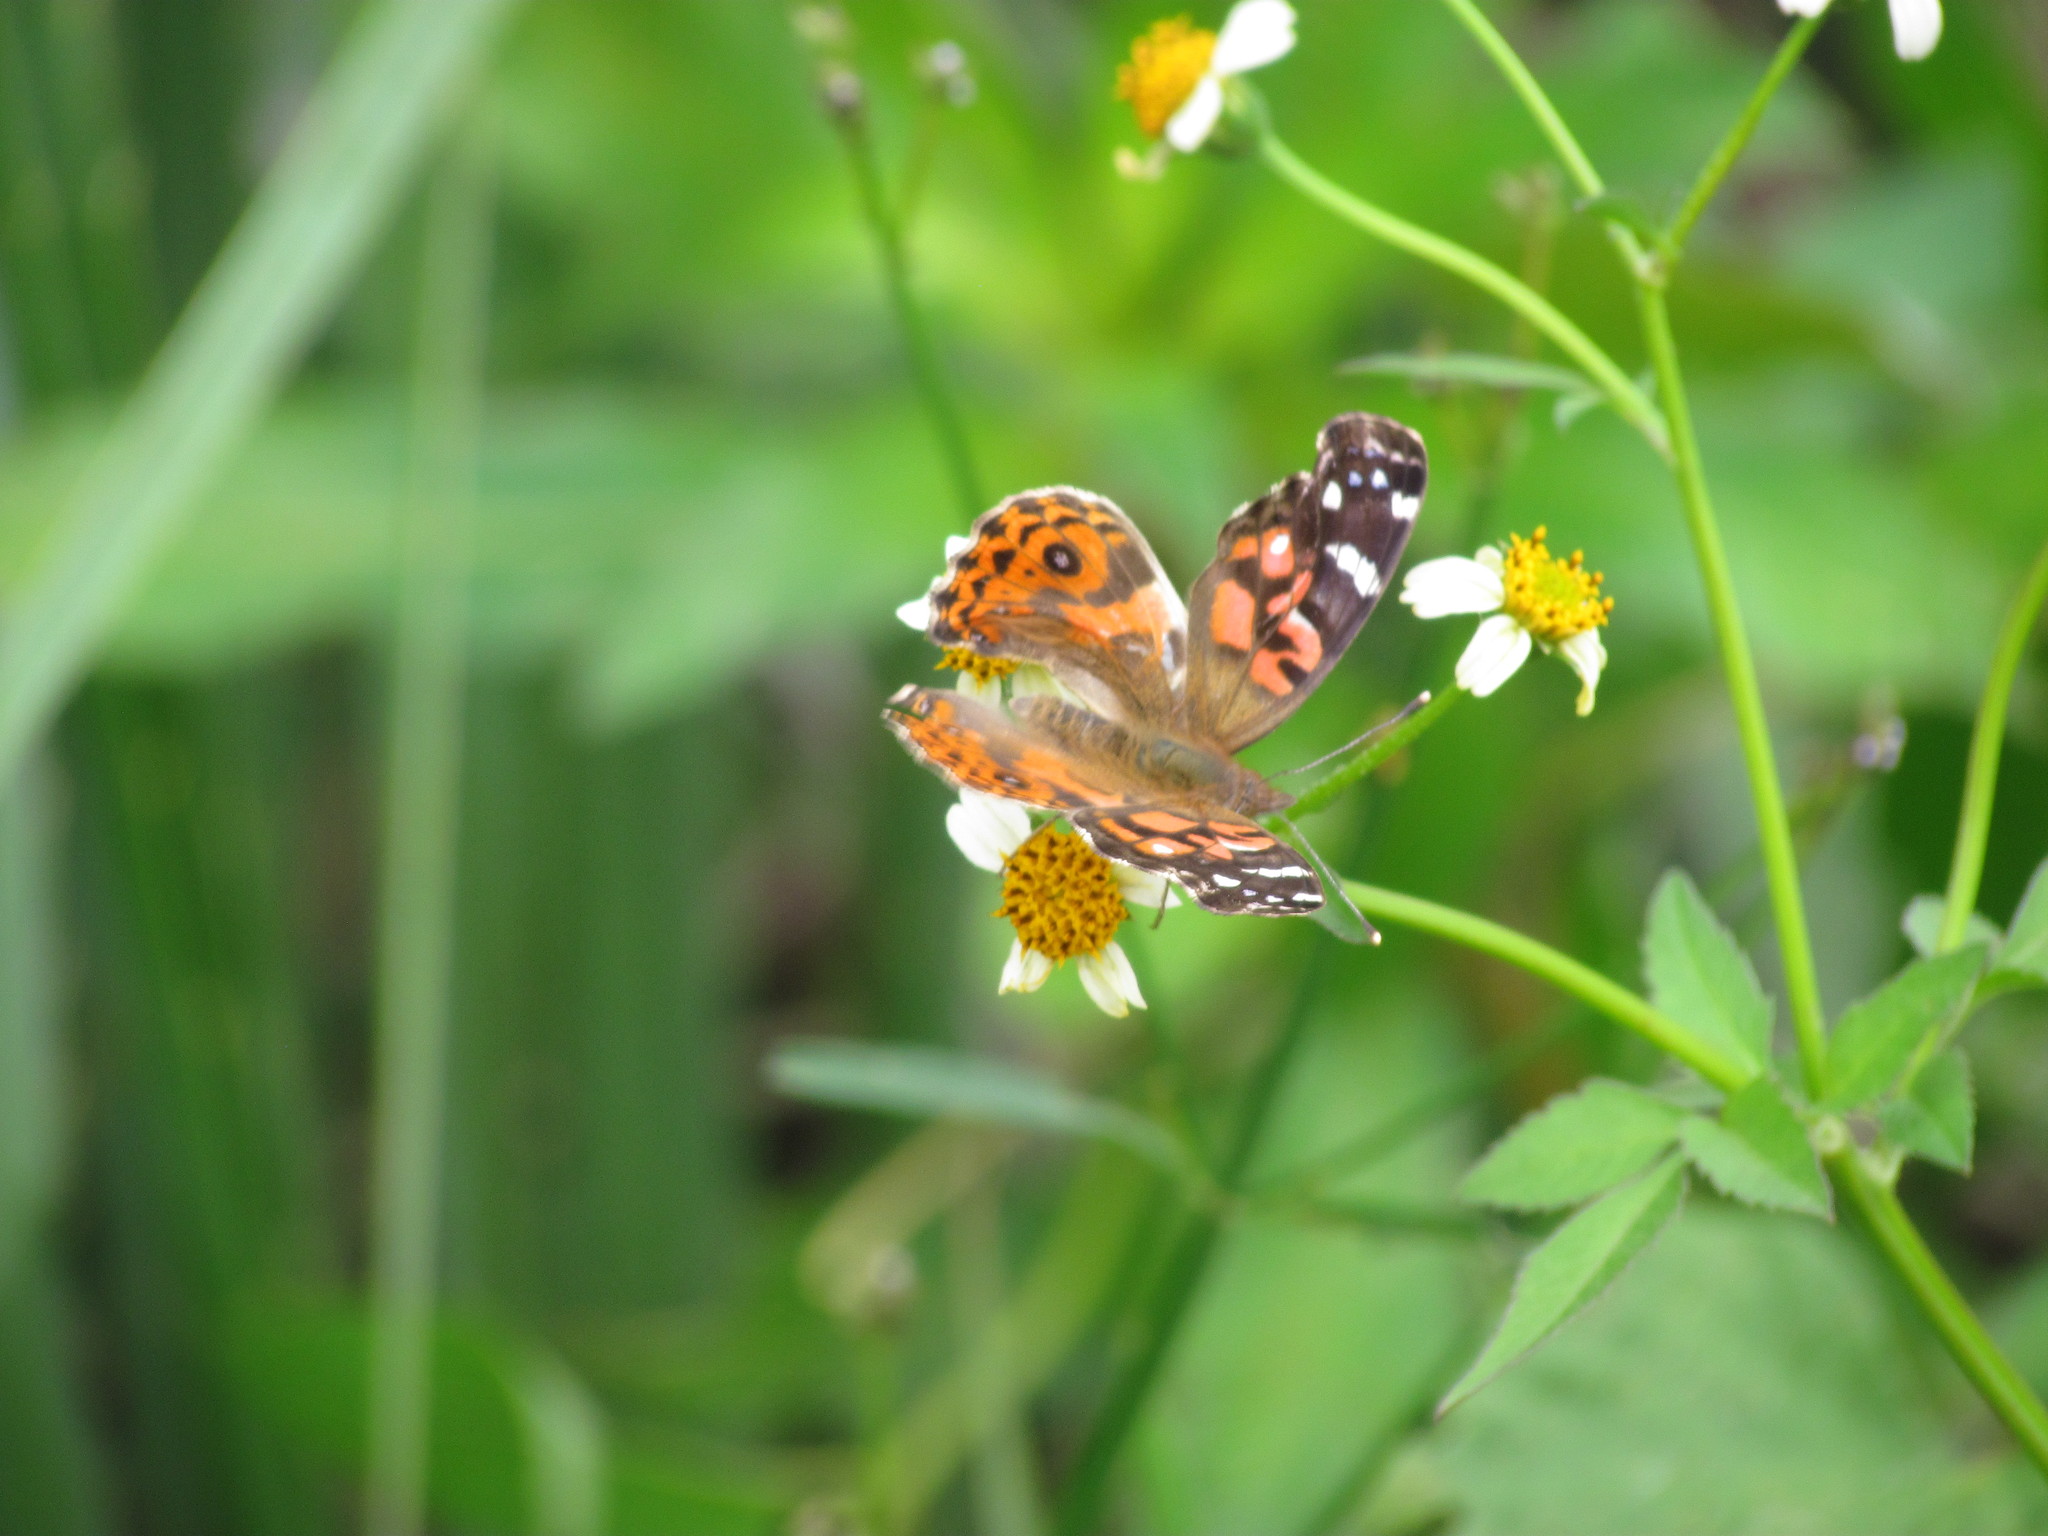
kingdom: Animalia
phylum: Arthropoda
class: Insecta
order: Lepidoptera
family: Nymphalidae
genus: Vanessa
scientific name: Vanessa braziliensis
